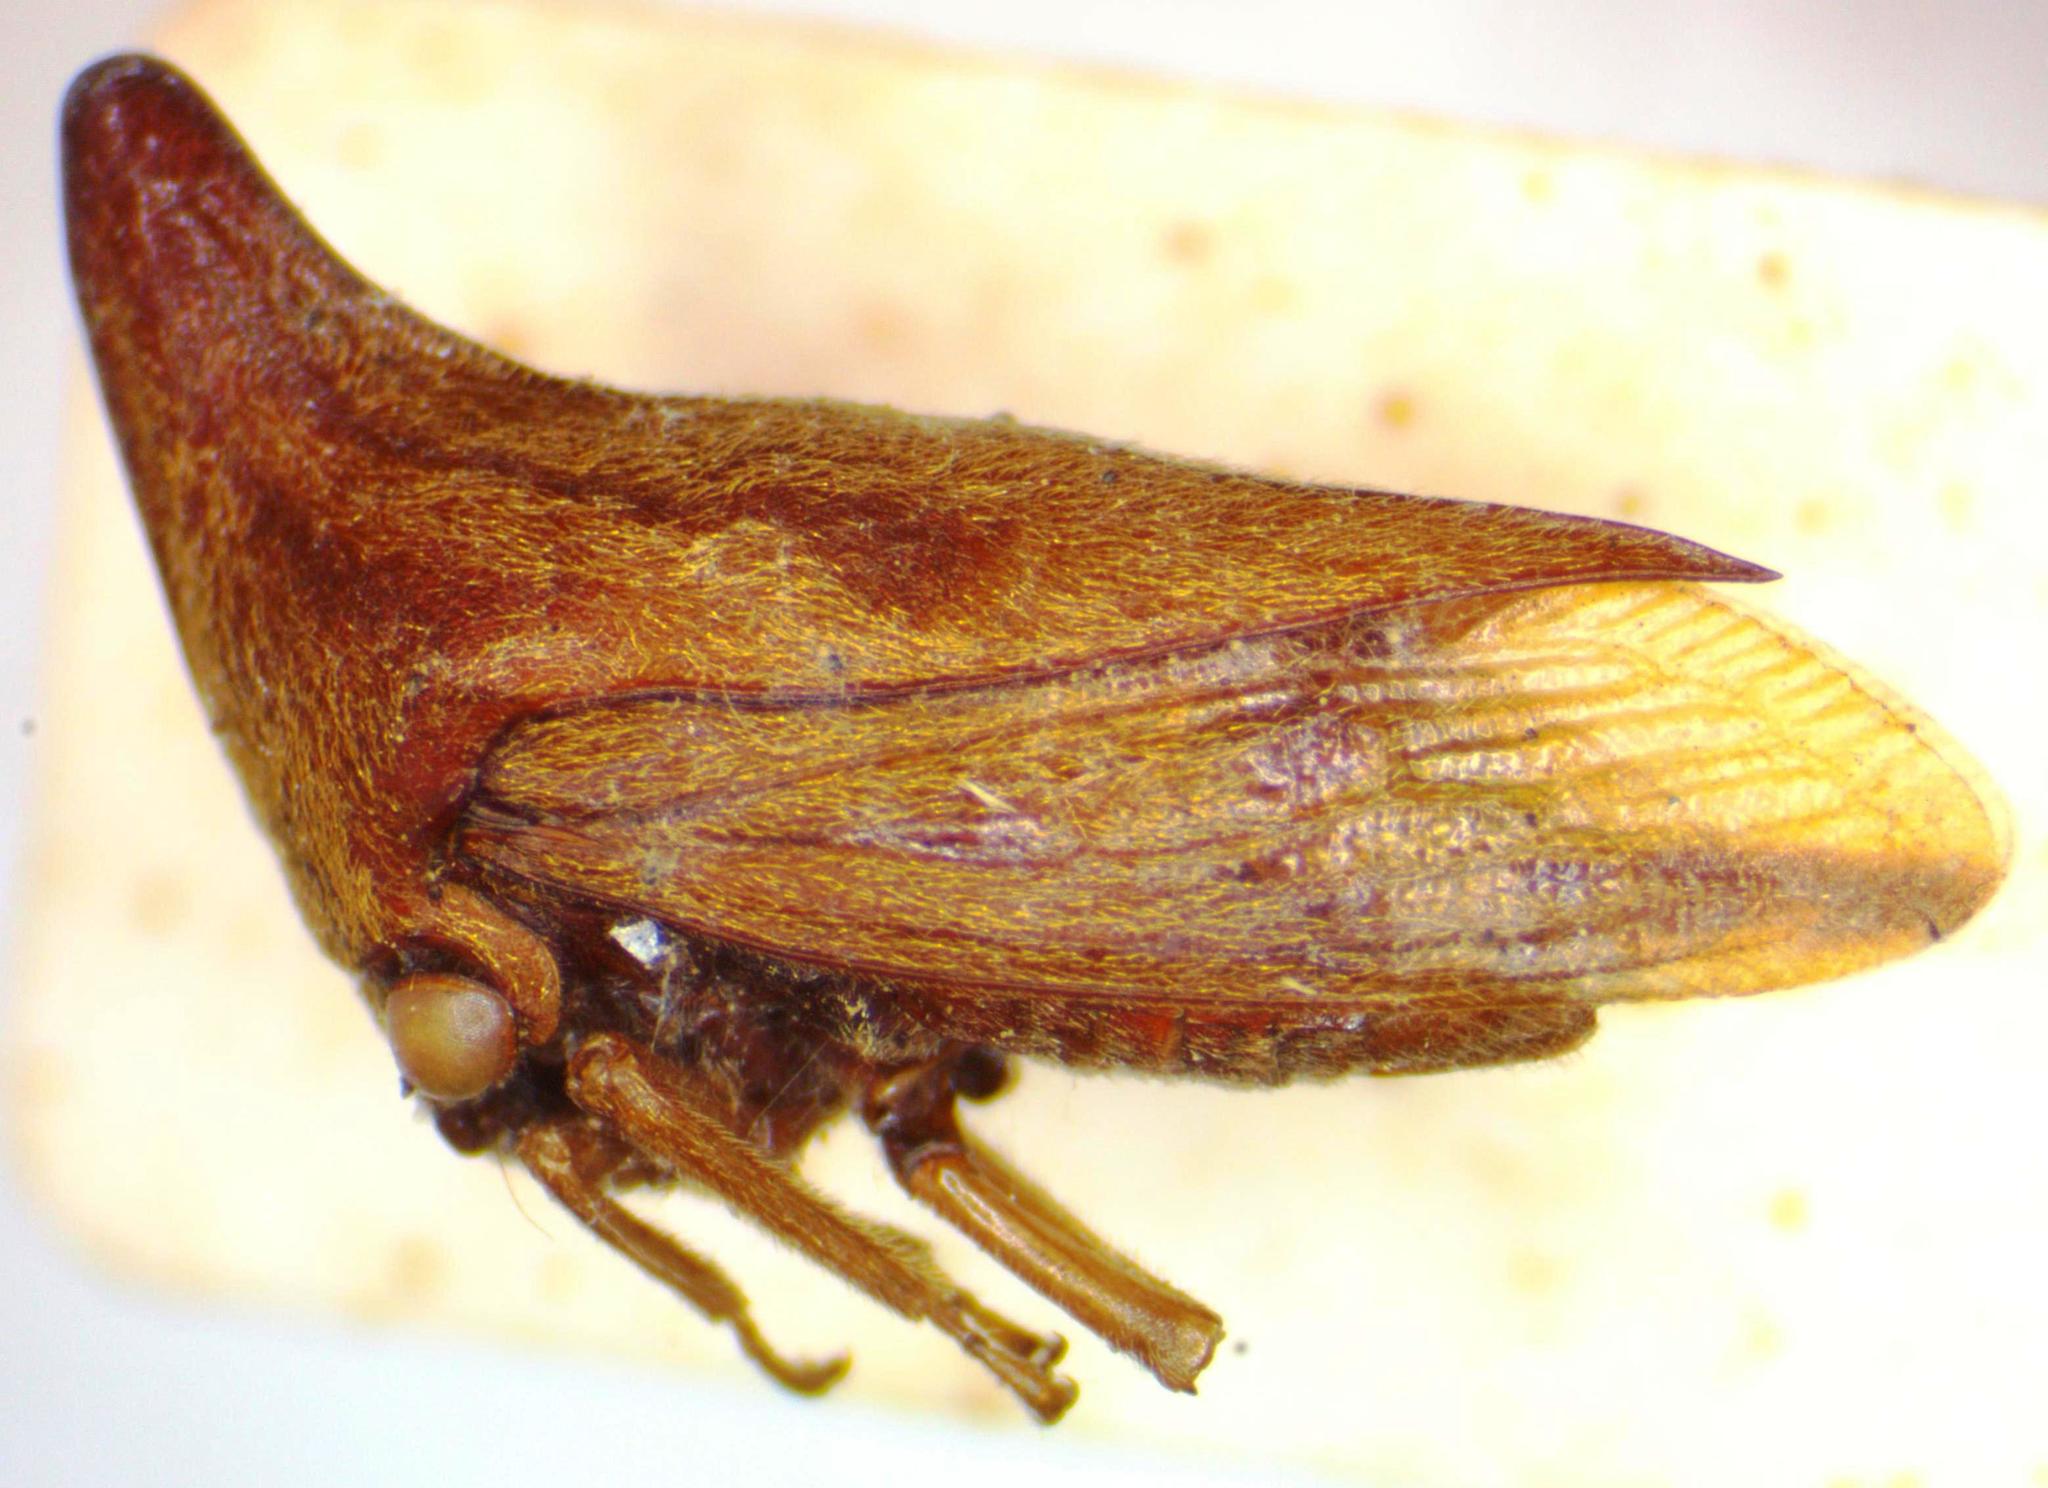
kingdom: Animalia
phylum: Arthropoda
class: Insecta
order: Hemiptera
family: Membracidae
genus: Aconophora
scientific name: Aconophora mexicana
